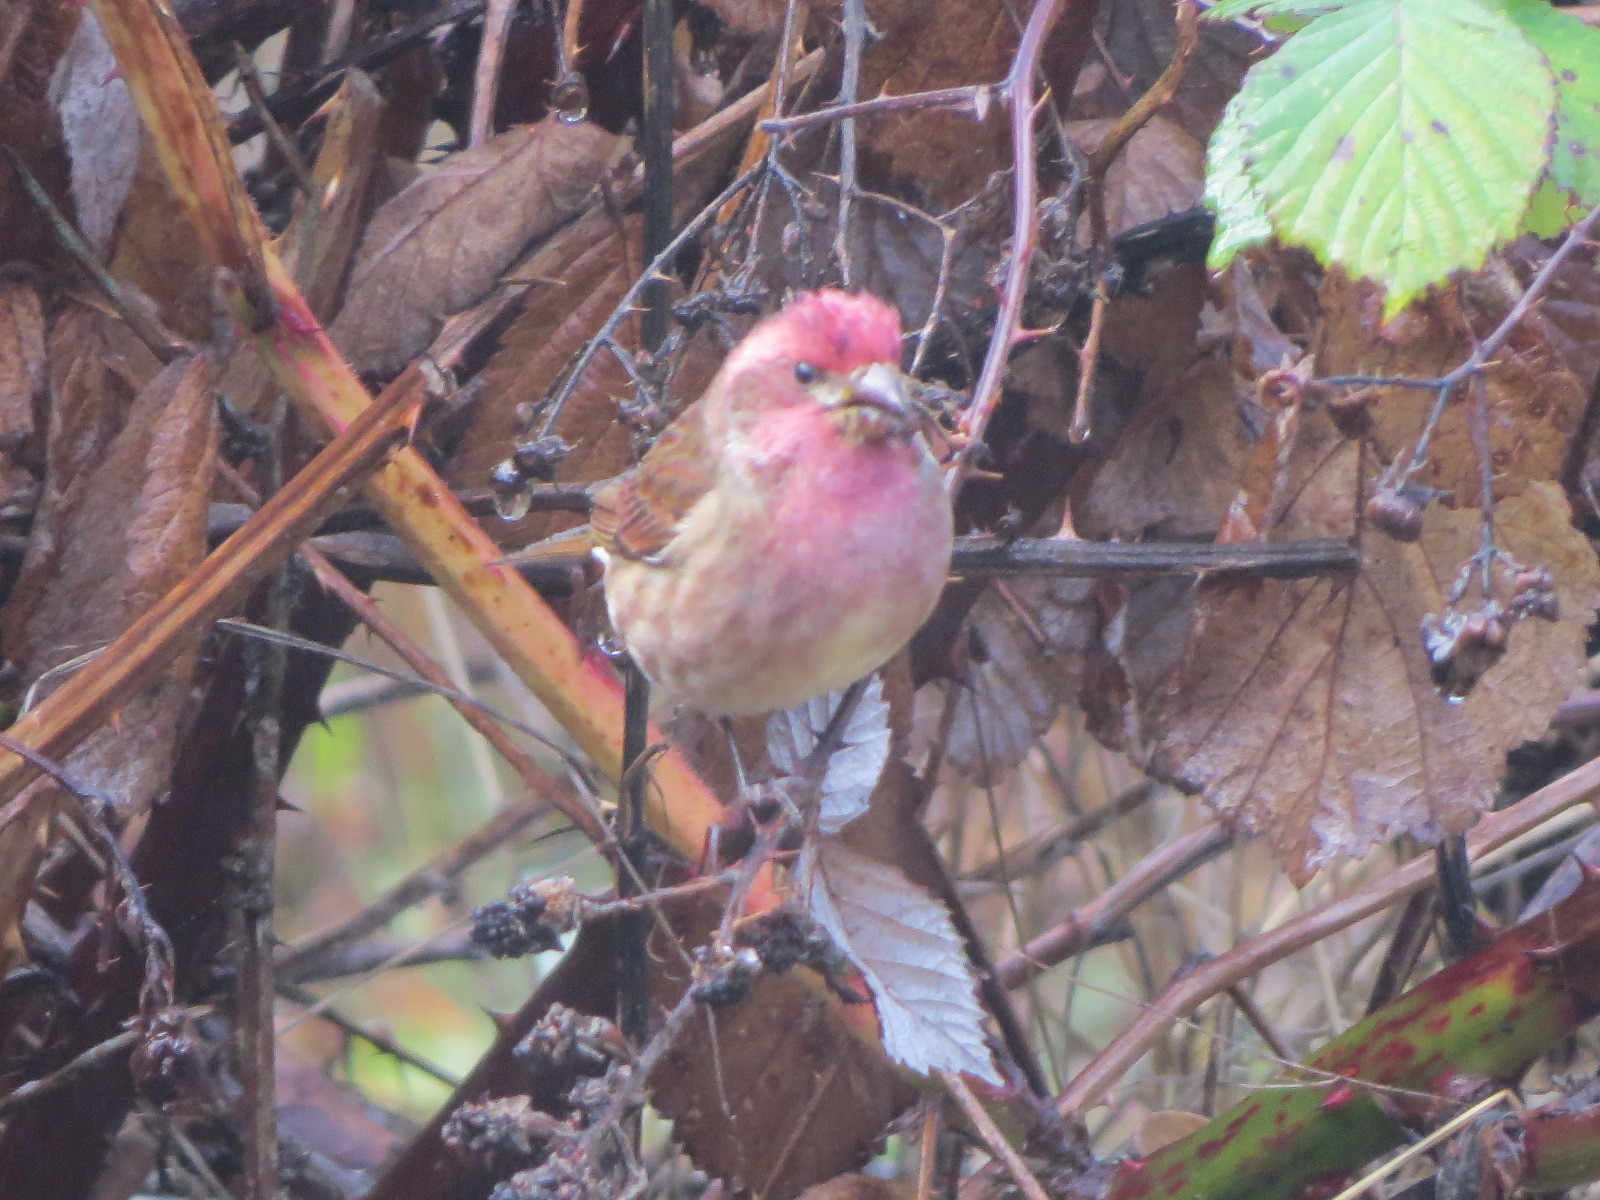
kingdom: Animalia
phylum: Chordata
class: Aves
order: Passeriformes
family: Fringillidae
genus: Haemorhous
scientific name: Haemorhous purpureus
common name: Purple finch
